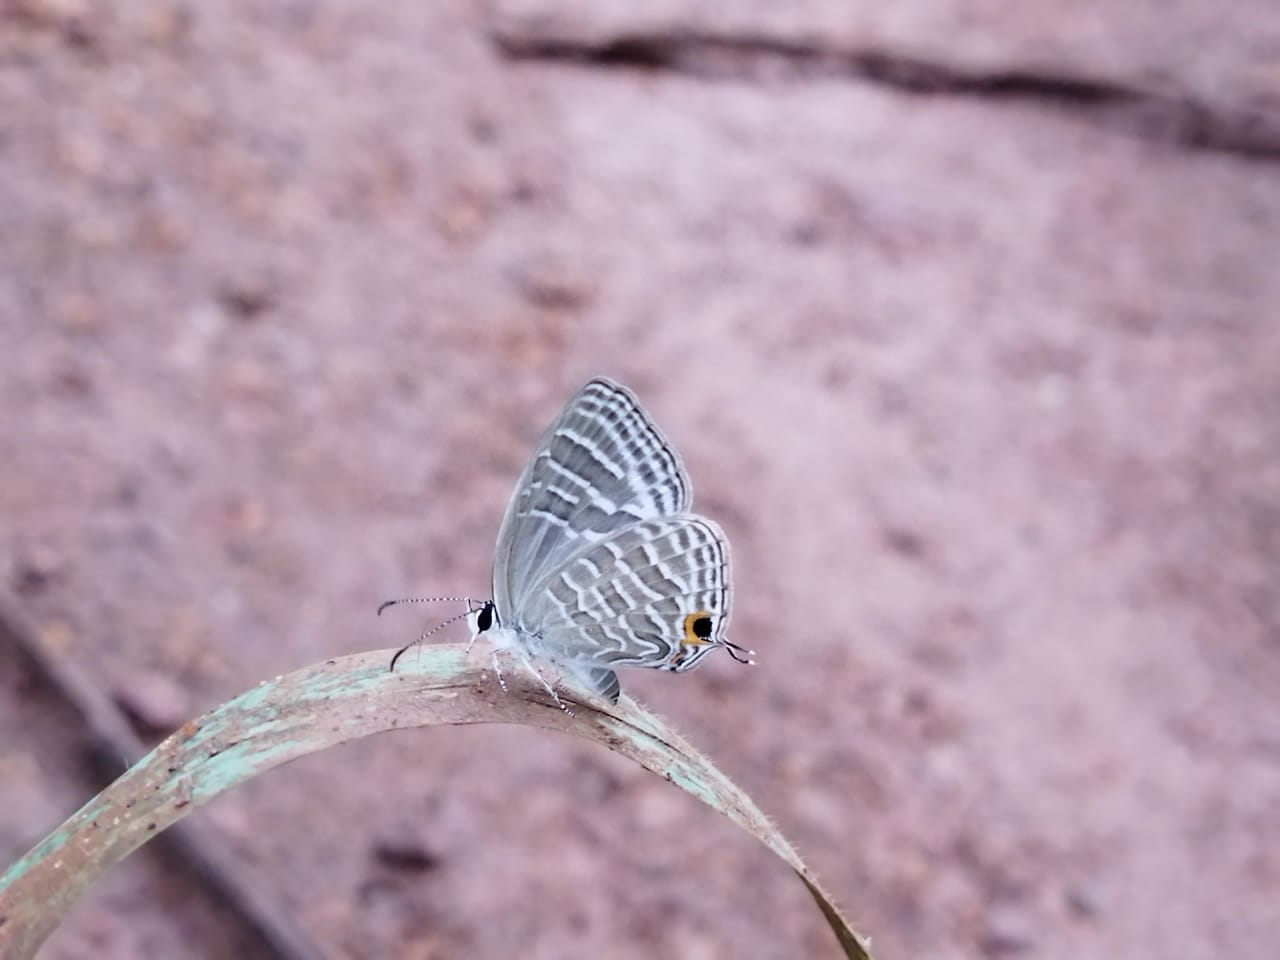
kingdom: Animalia
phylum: Arthropoda
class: Insecta
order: Lepidoptera
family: Lycaenidae
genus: Jamides
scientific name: Jamides celeno
